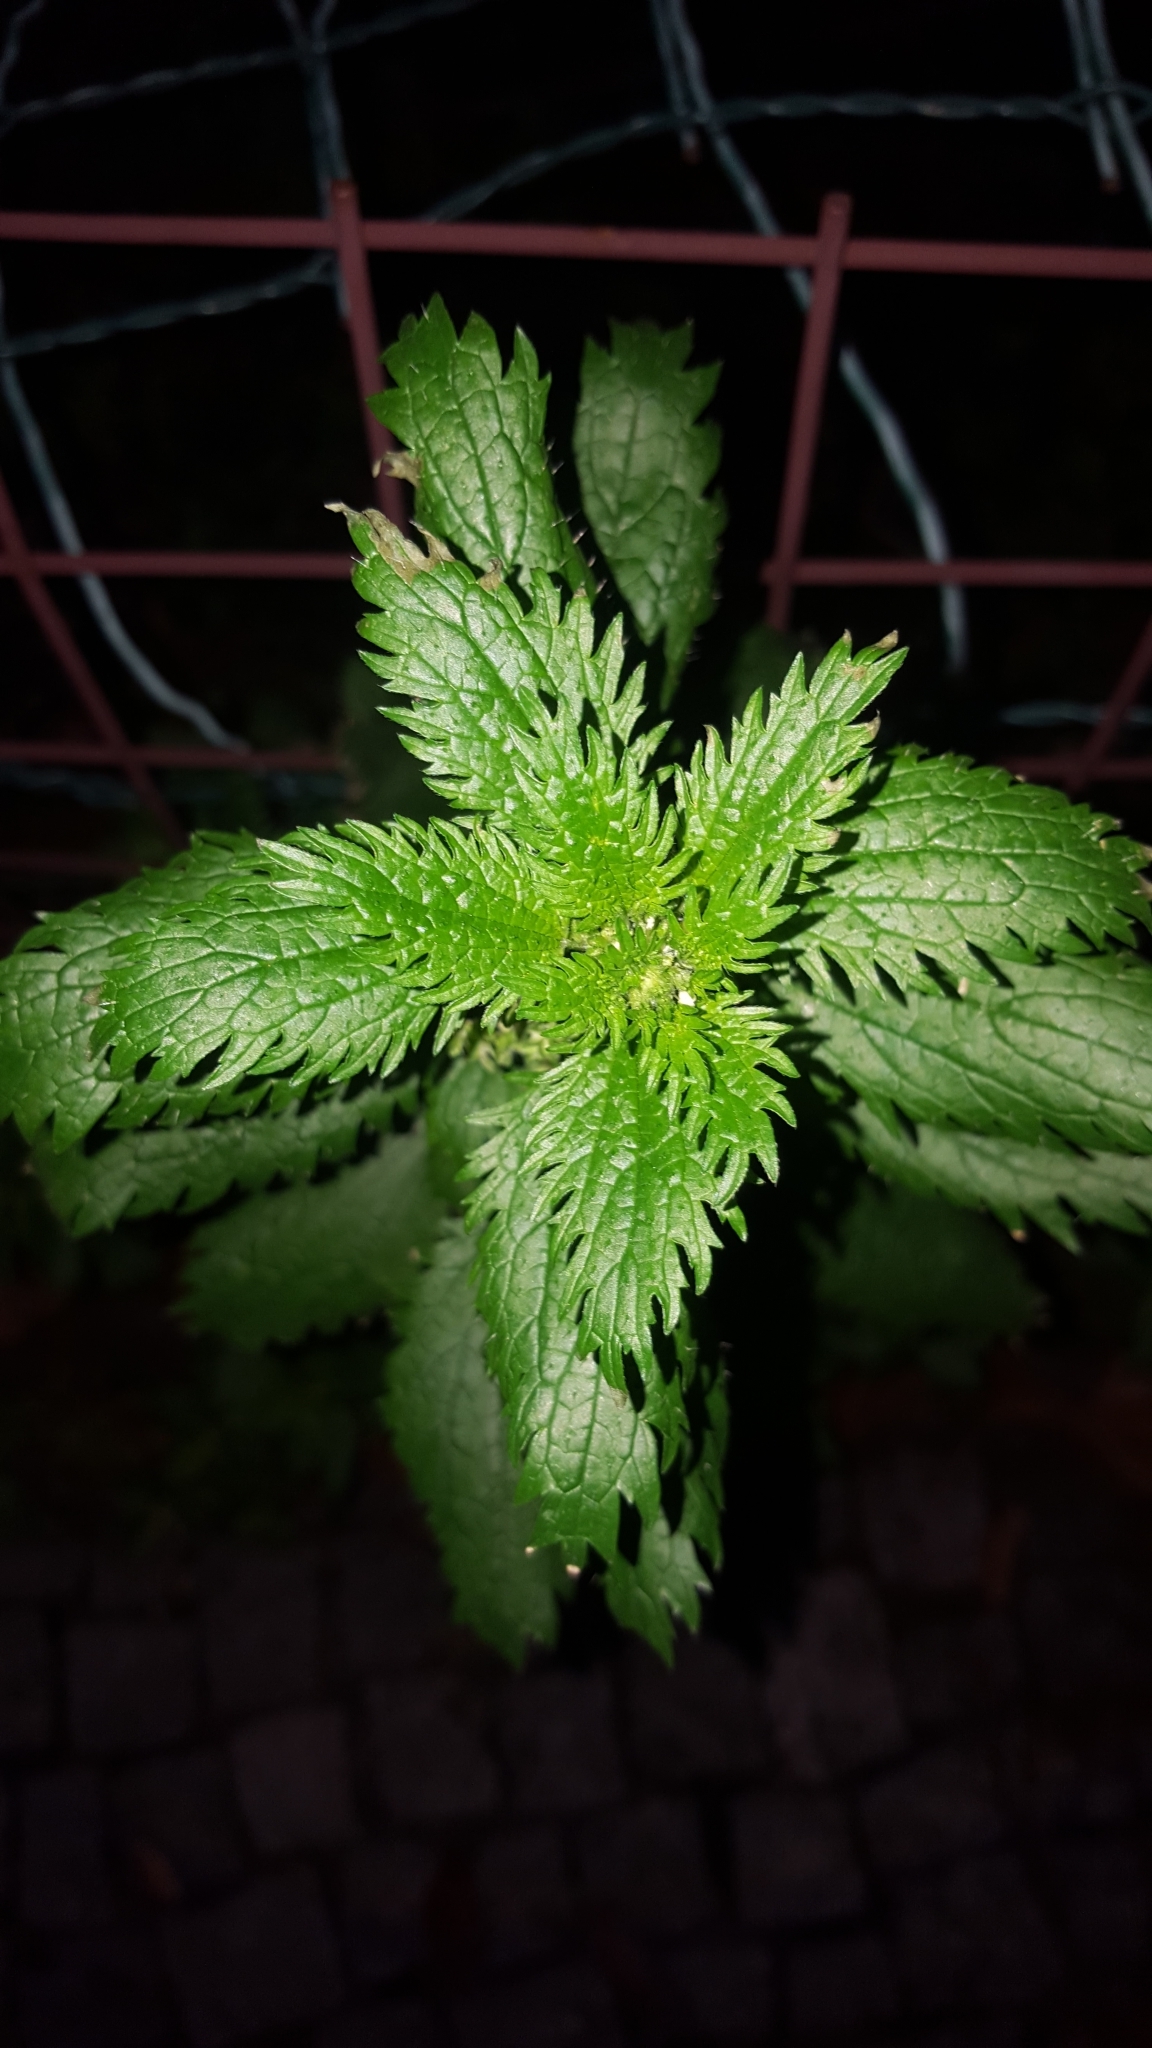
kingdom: Plantae
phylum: Tracheophyta
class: Magnoliopsida
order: Rosales
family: Urticaceae
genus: Urtica
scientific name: Urtica urens
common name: Dwarf nettle
